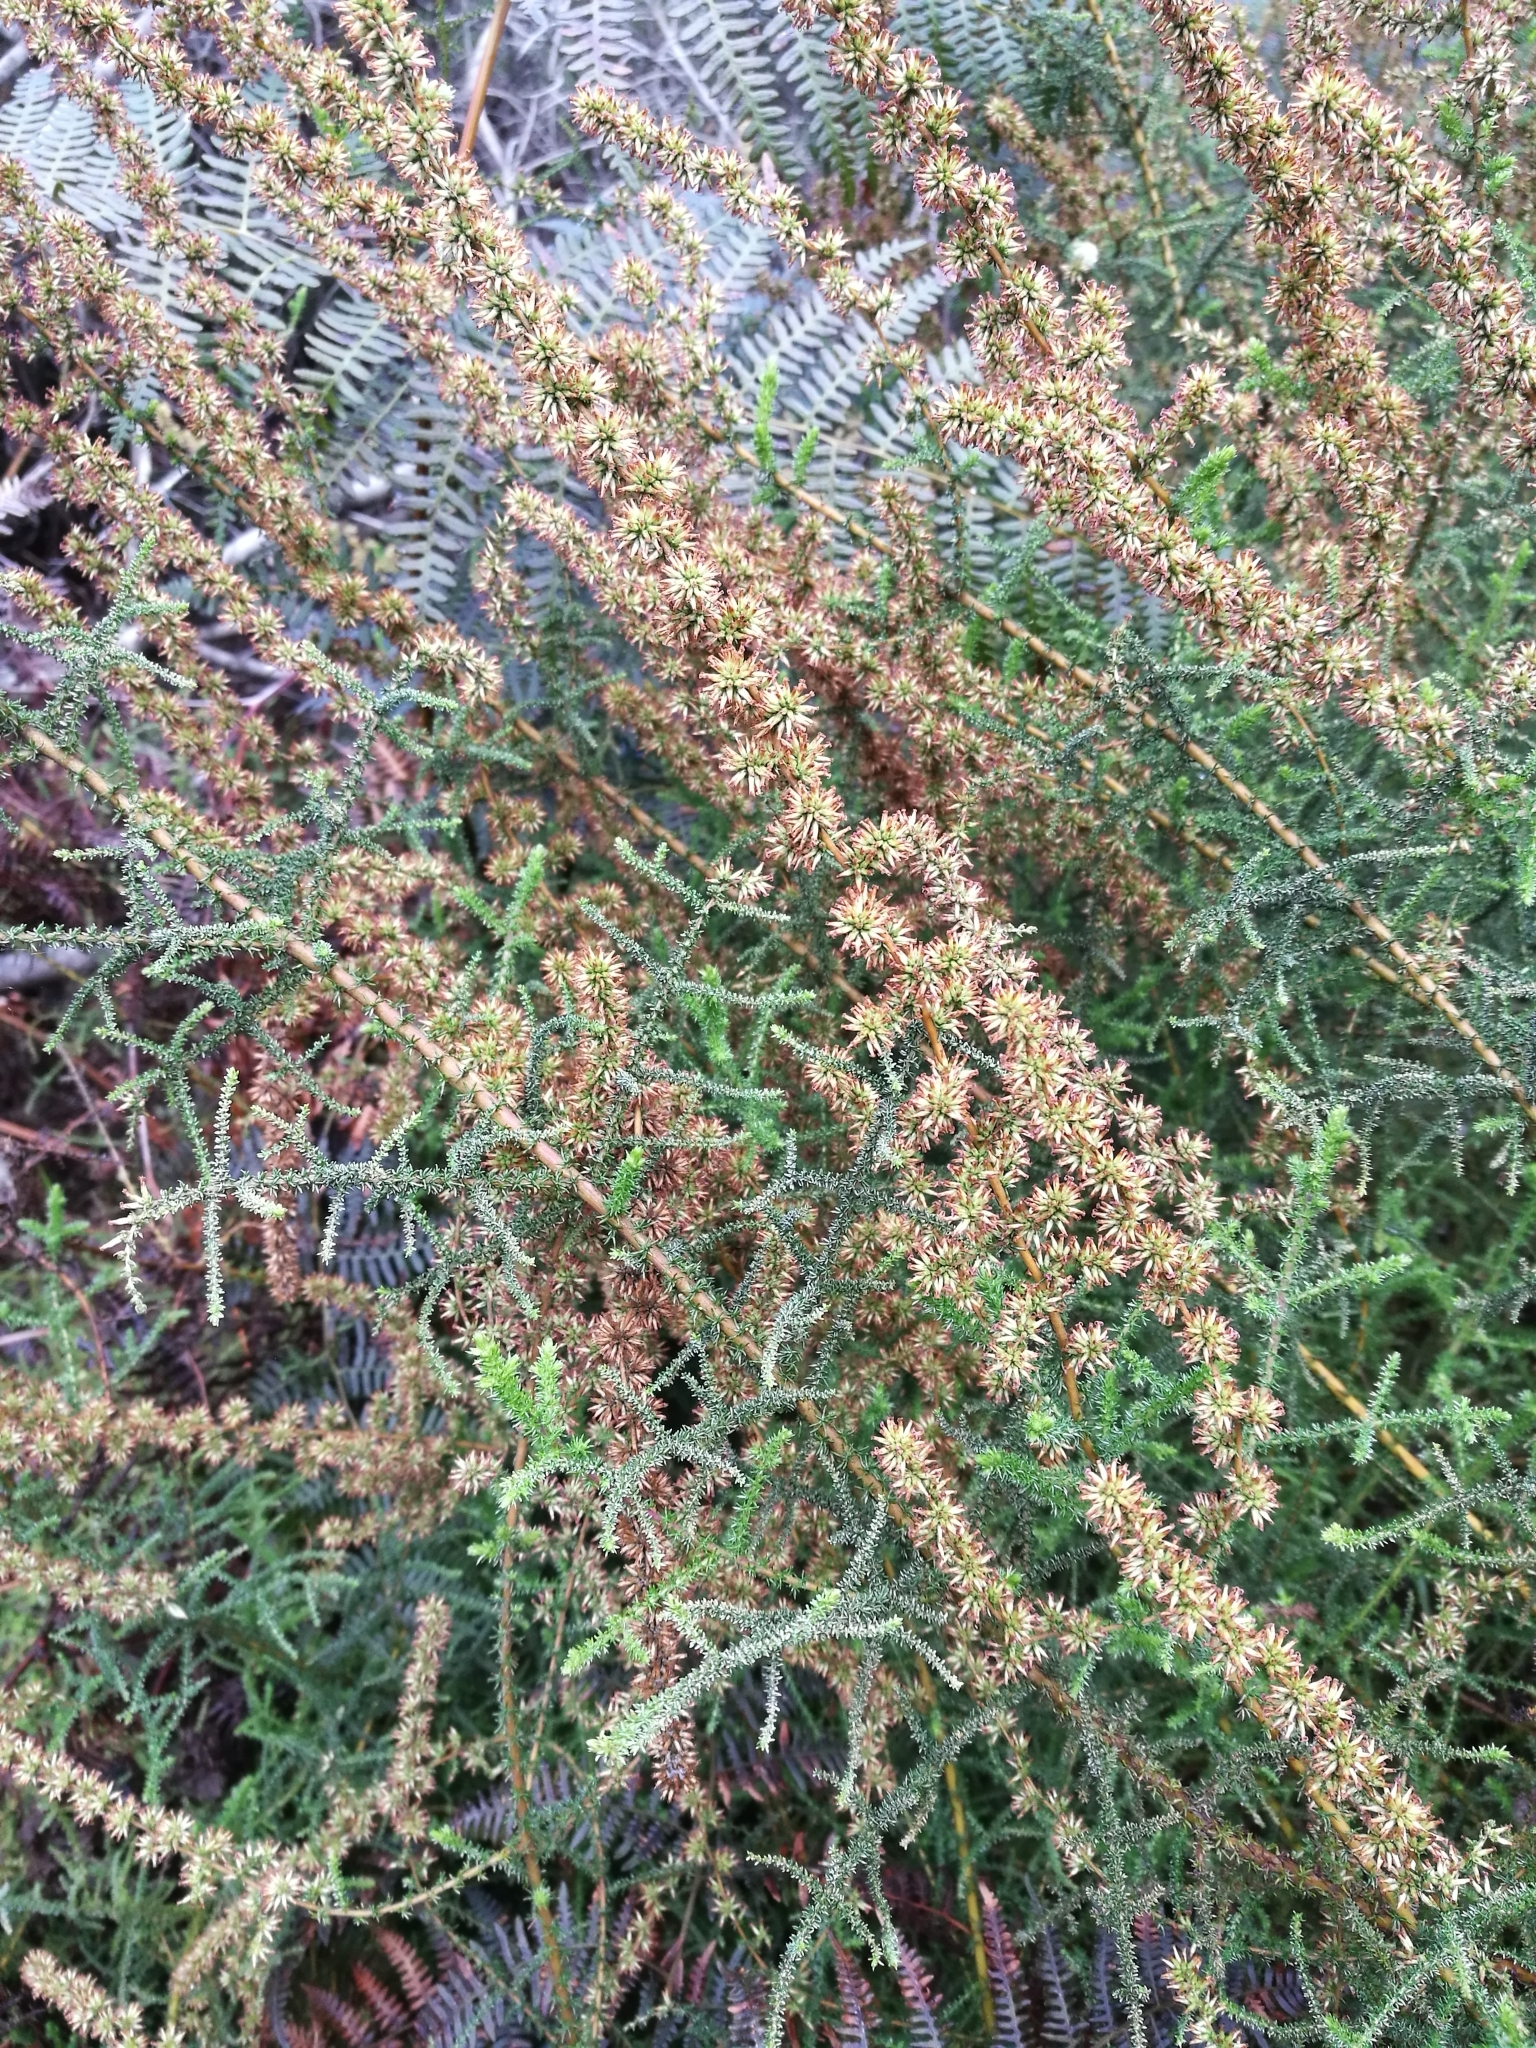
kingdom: Plantae
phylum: Tracheophyta
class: Magnoliopsida
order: Asterales
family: Asteraceae
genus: Seriphium
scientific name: Seriphium plumosum
